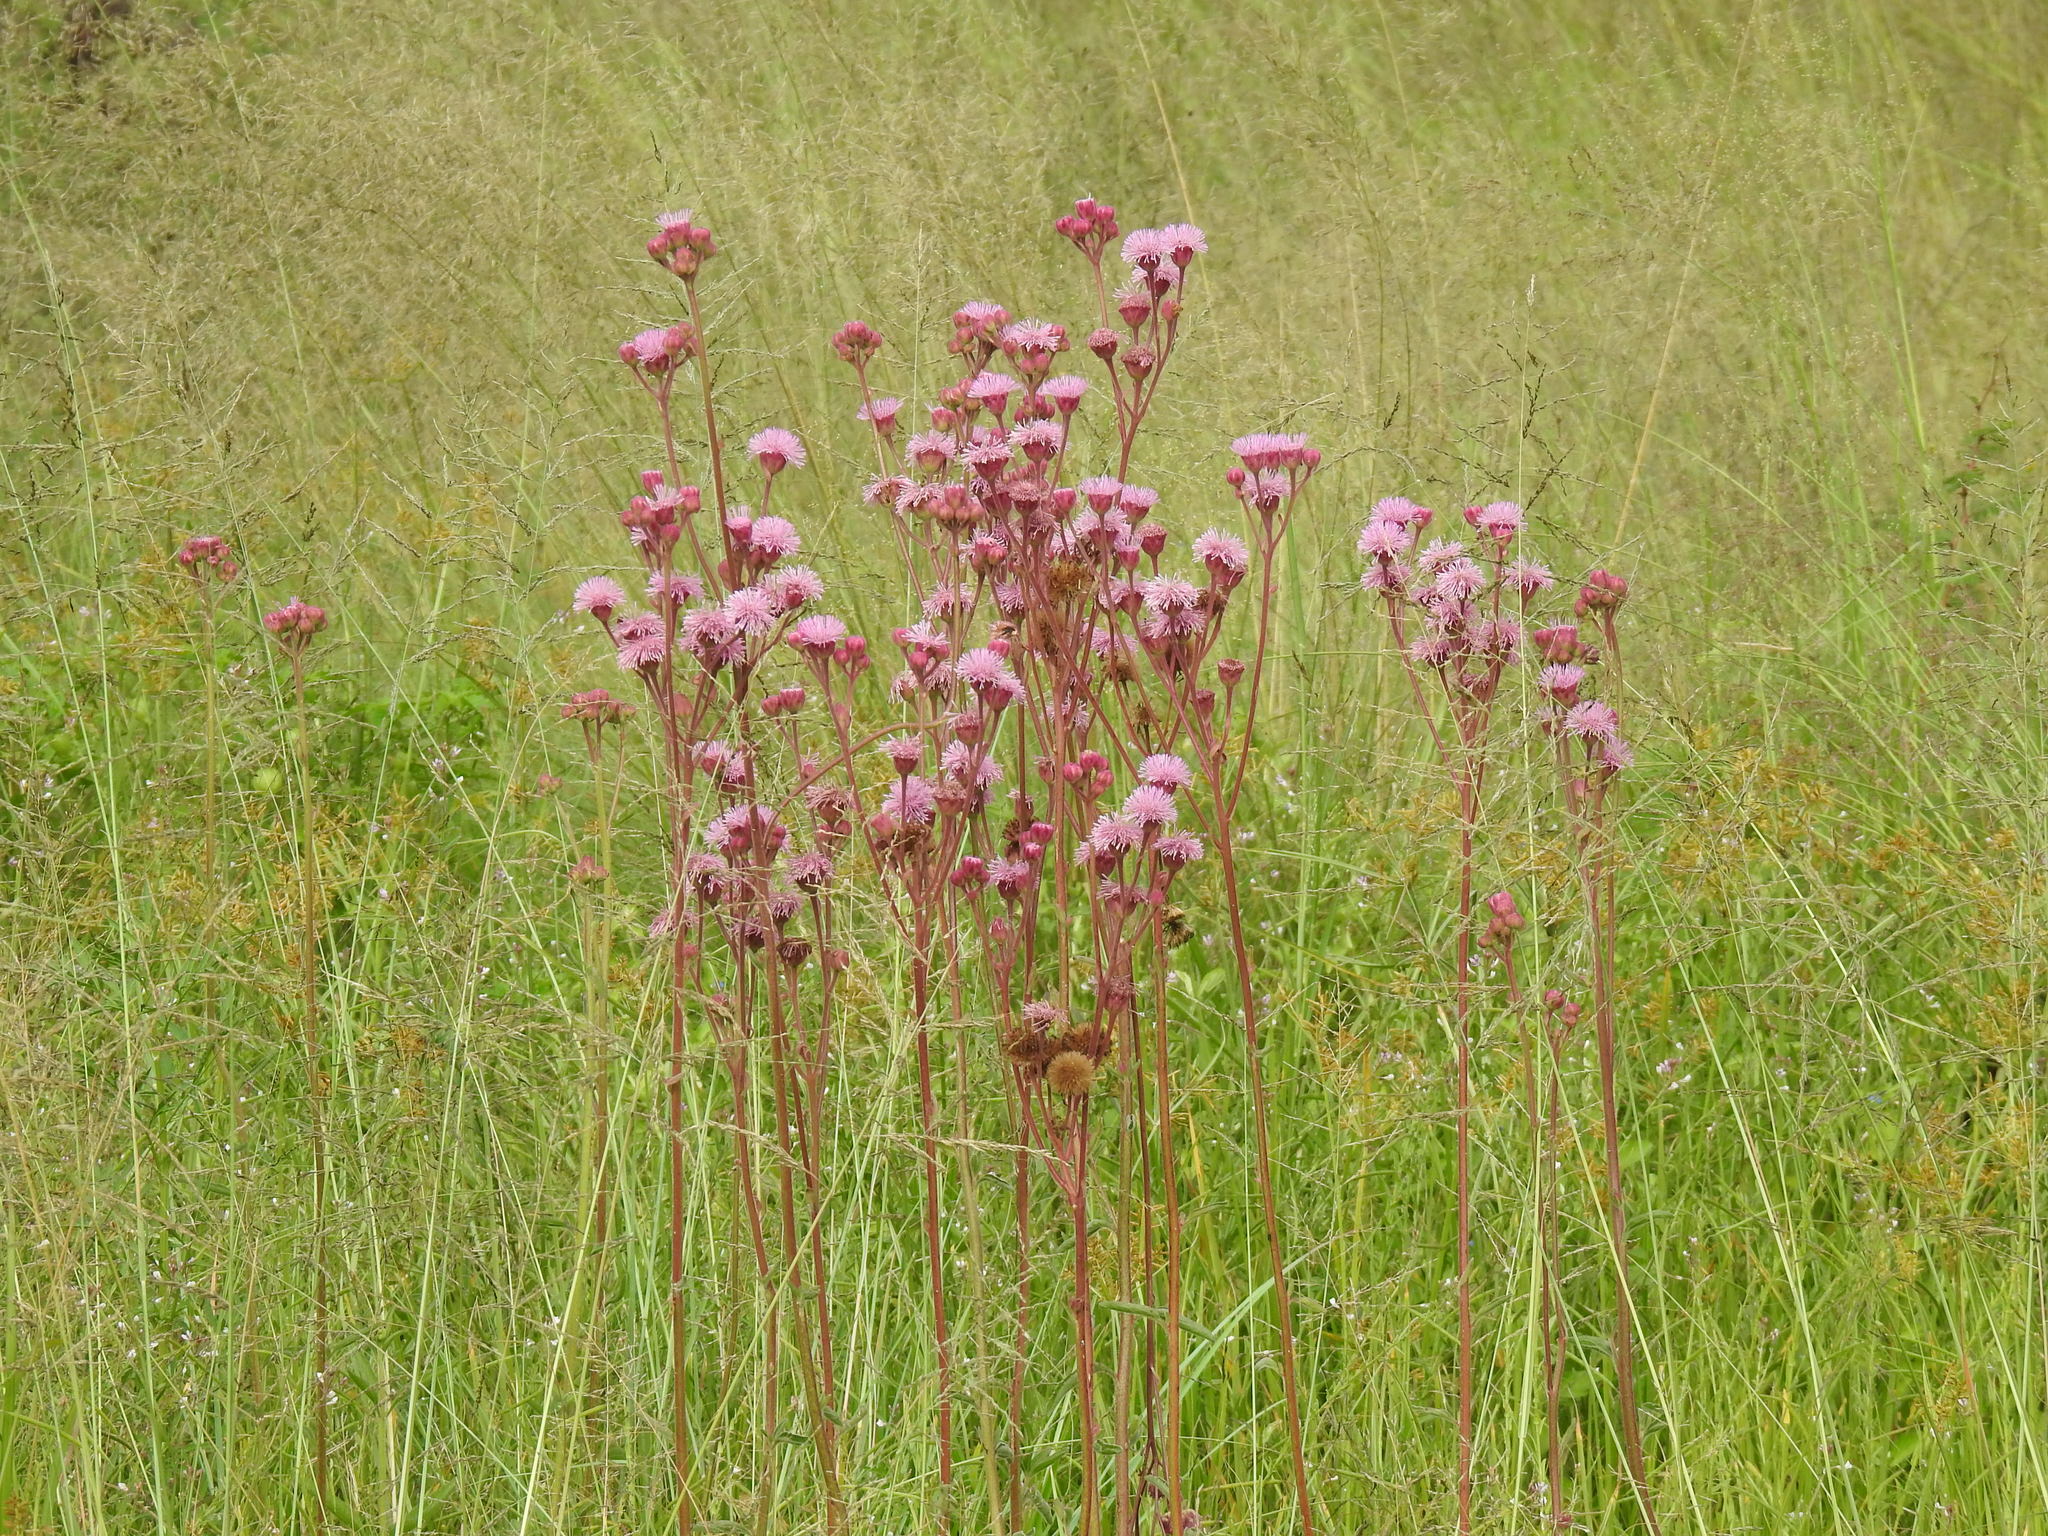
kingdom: Plantae
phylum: Tracheophyta
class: Magnoliopsida
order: Asterales
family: Asteraceae
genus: Campuloclinium
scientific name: Campuloclinium macrocephalum
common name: Pompomweed
